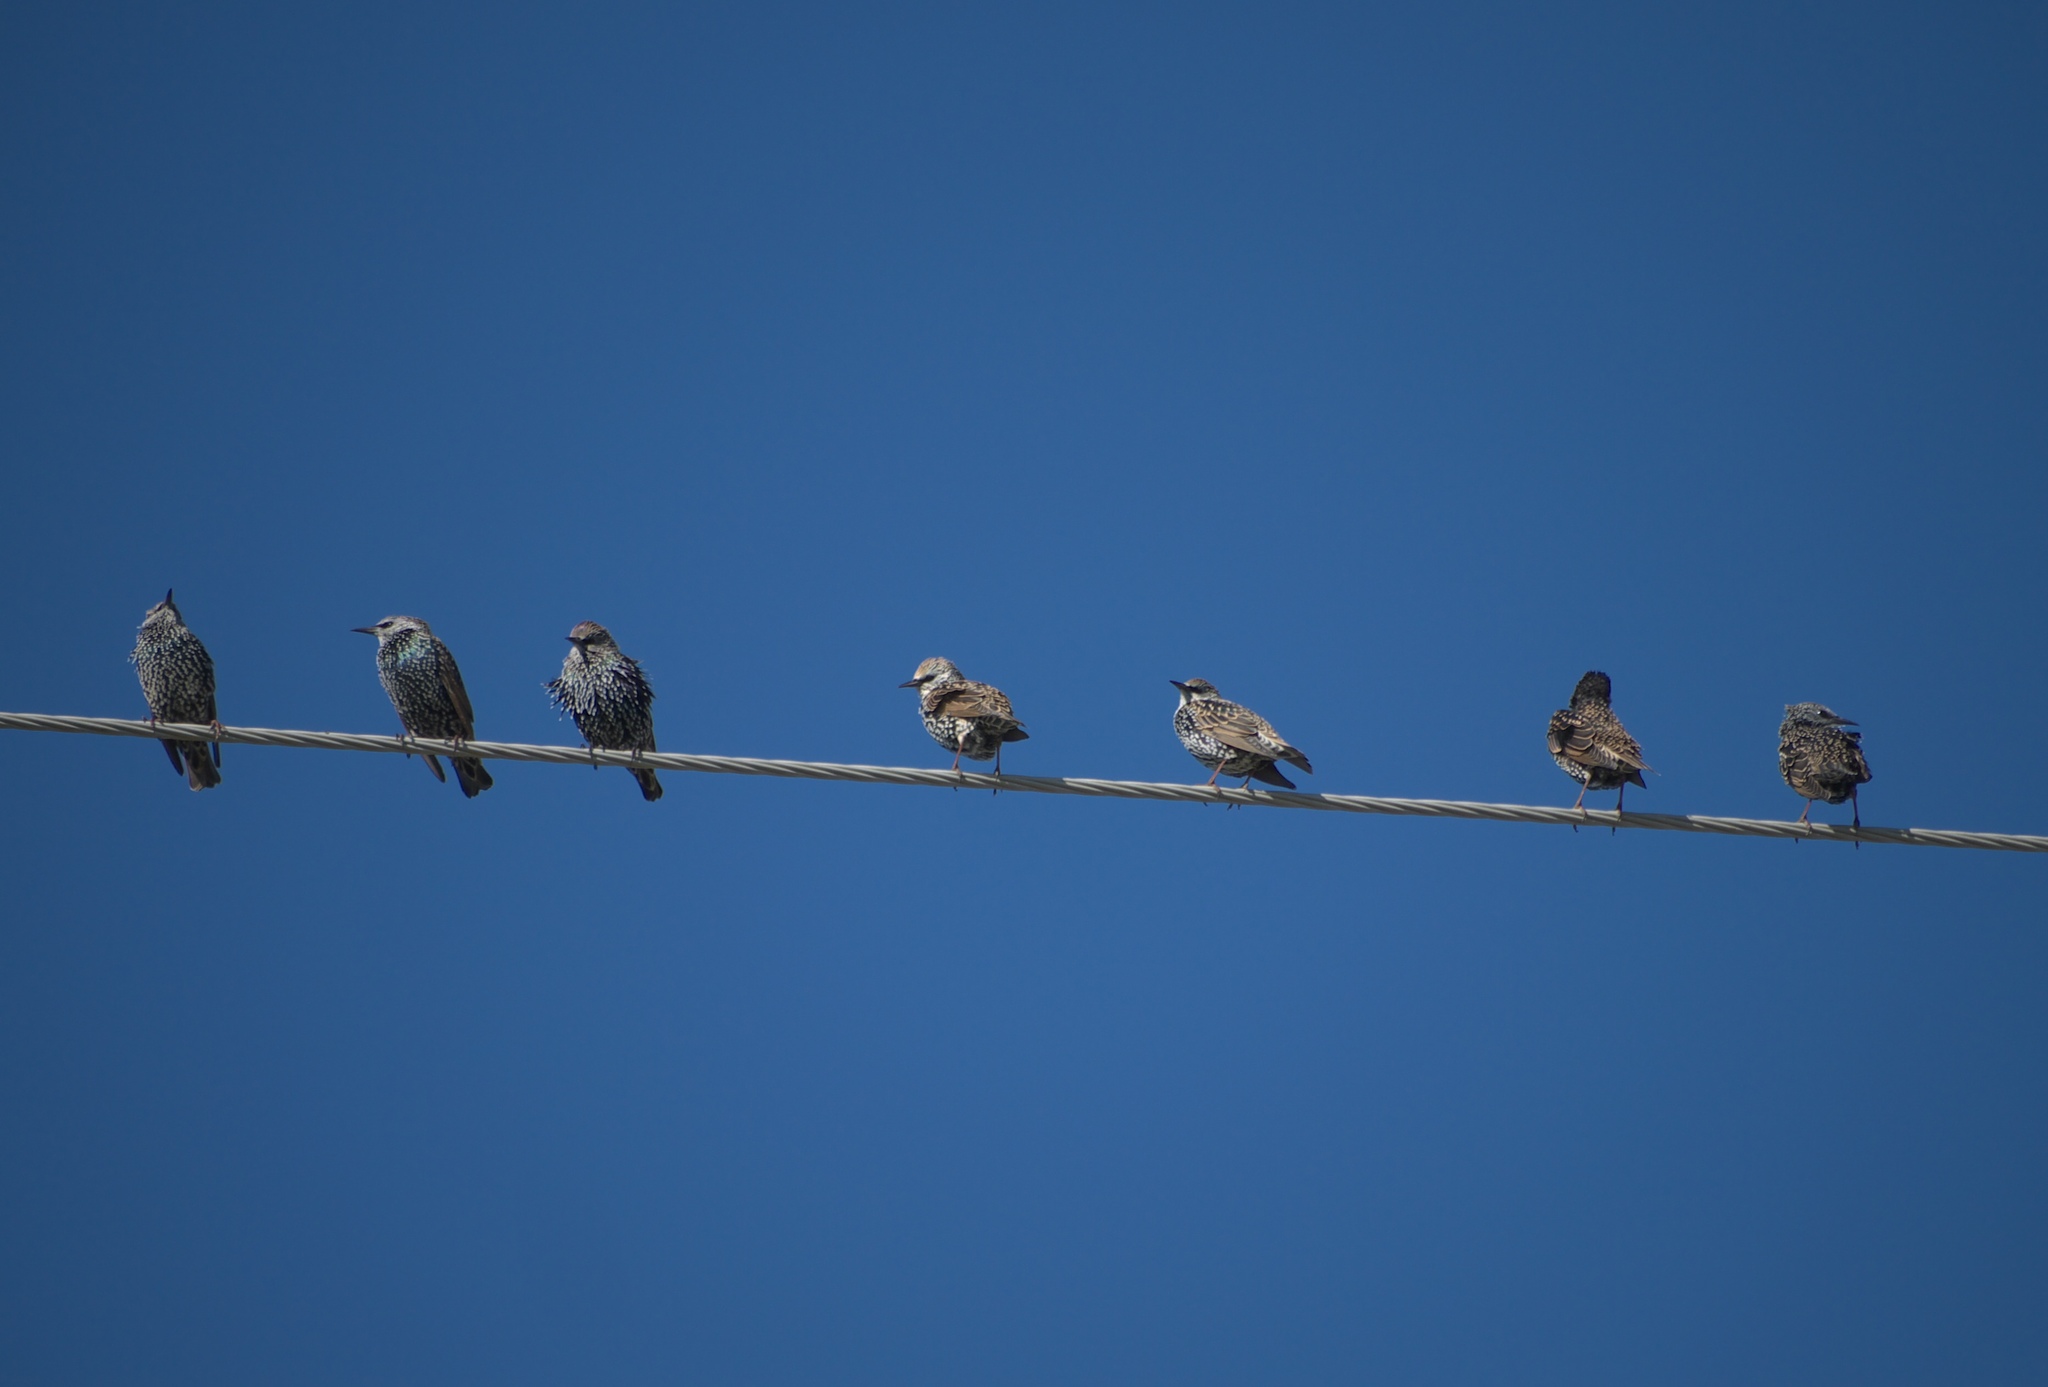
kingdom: Animalia
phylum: Chordata
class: Aves
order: Passeriformes
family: Sturnidae
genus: Sturnus
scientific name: Sturnus vulgaris
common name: Common starling
